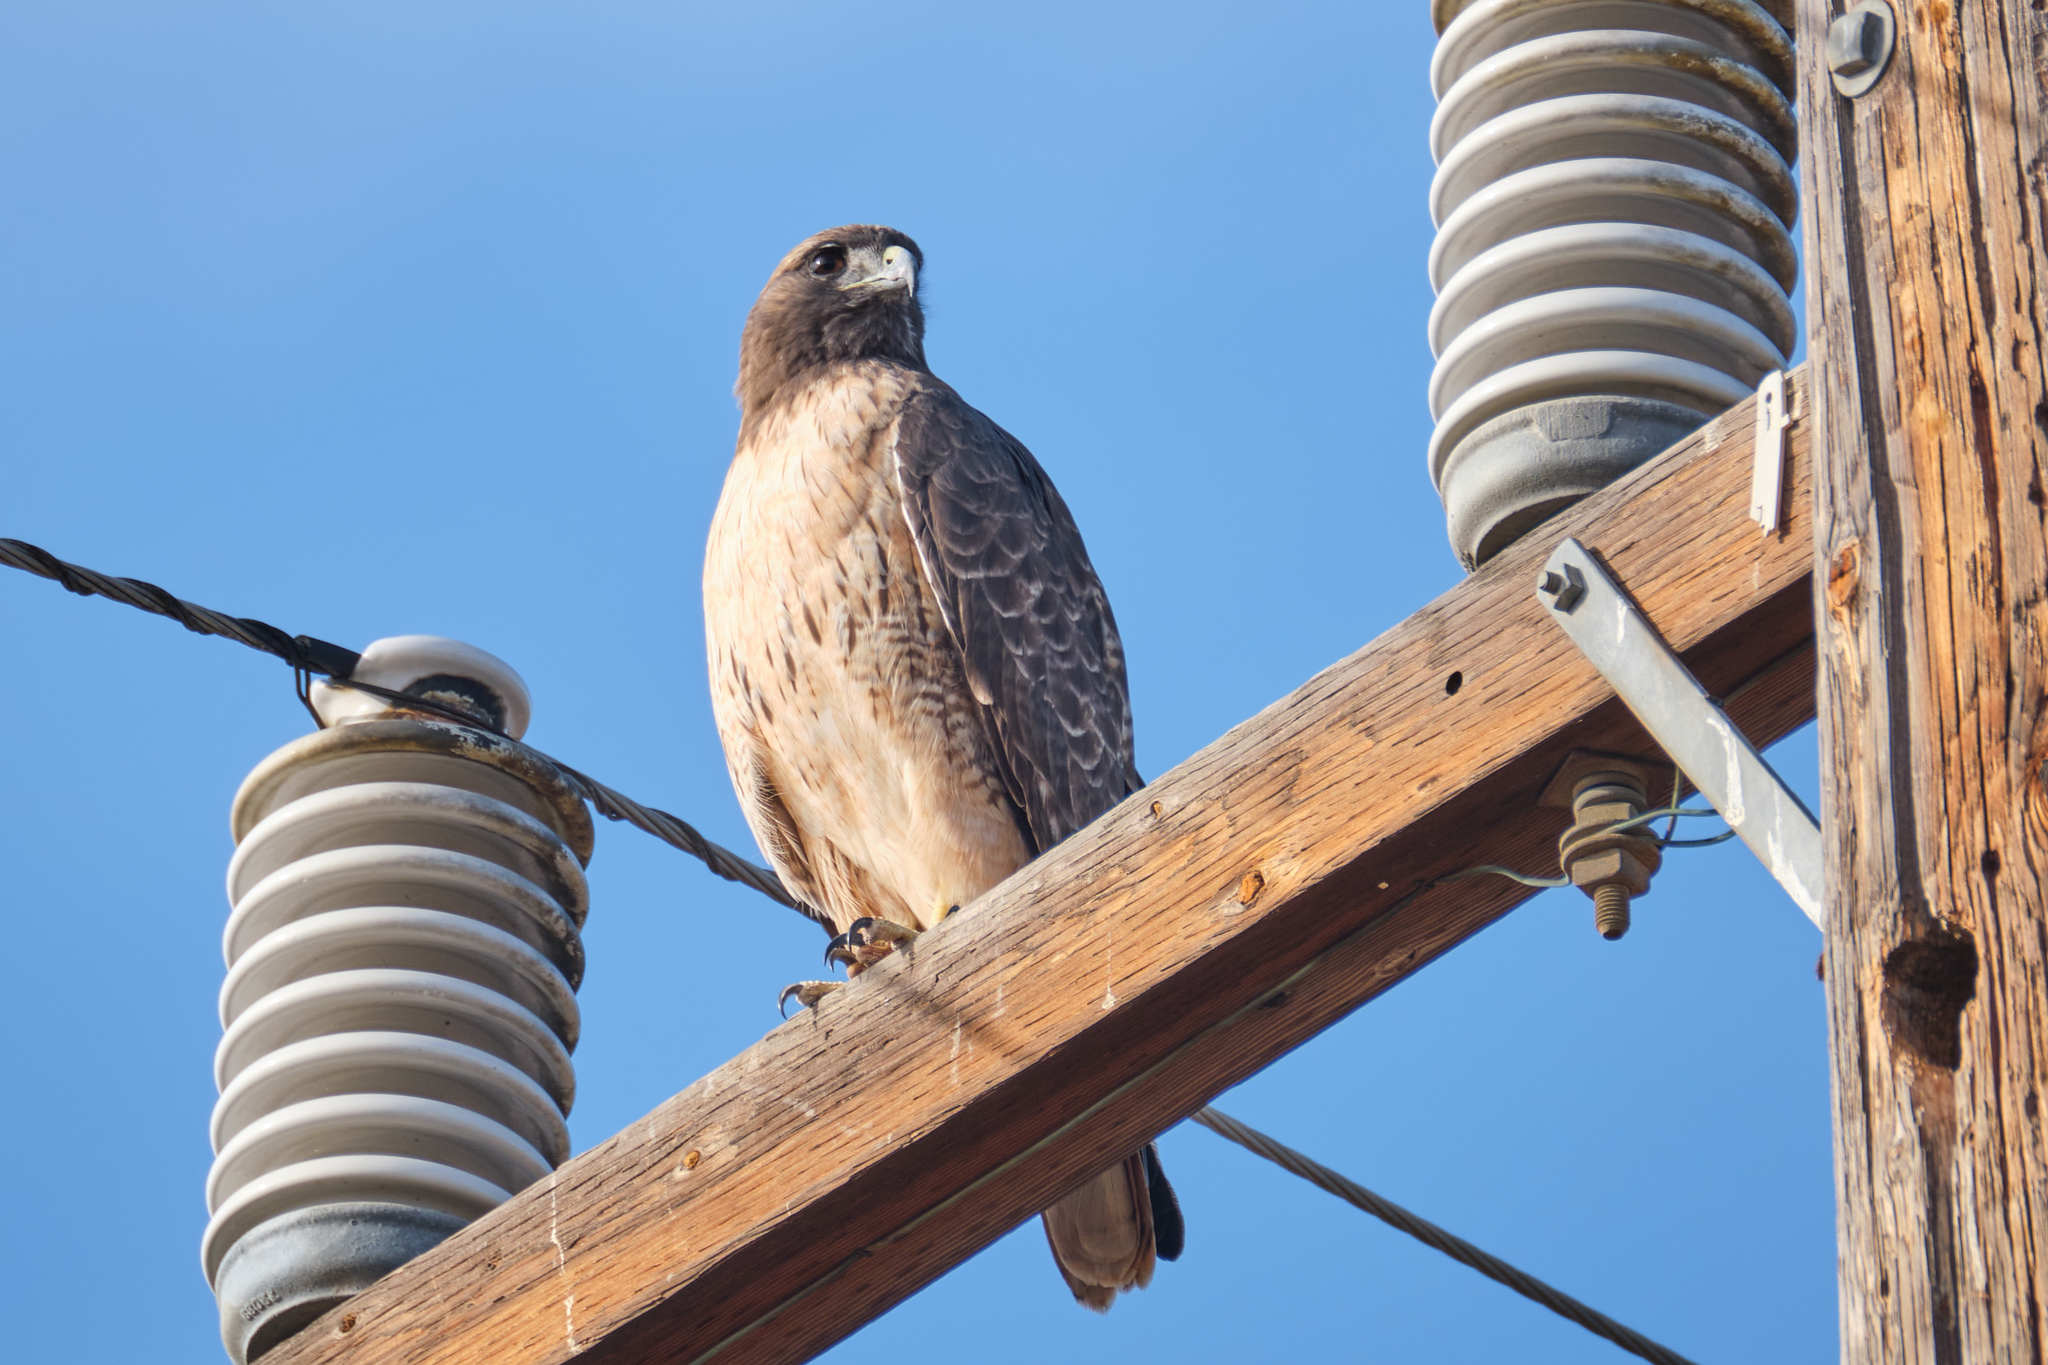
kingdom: Animalia
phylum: Chordata
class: Aves
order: Accipitriformes
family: Accipitridae
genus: Buteo
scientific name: Buteo jamaicensis
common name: Red-tailed hawk
